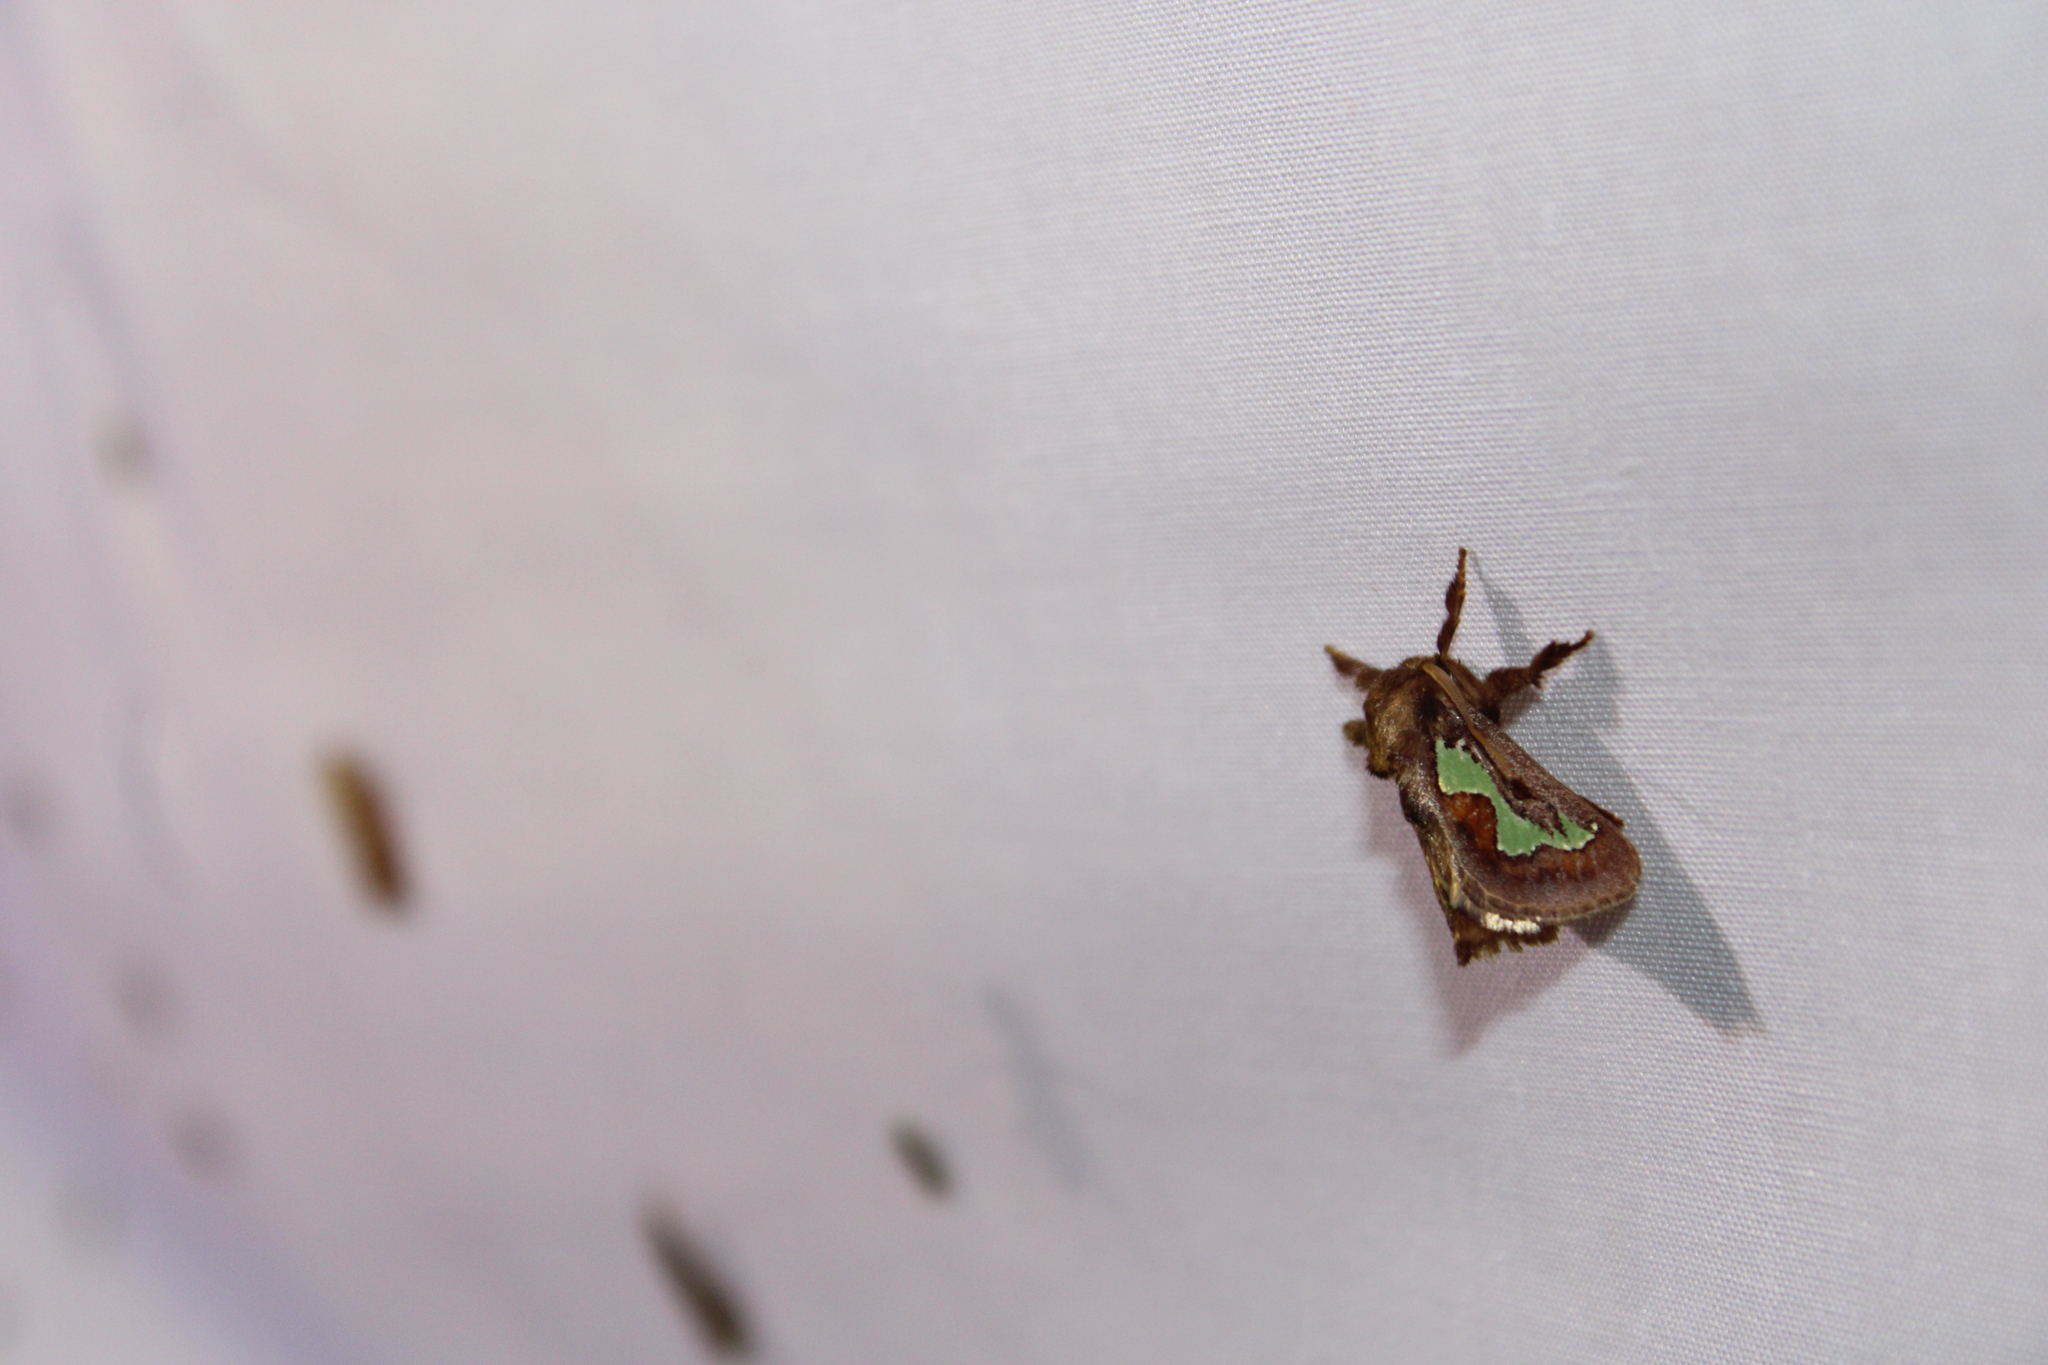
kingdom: Animalia
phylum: Arthropoda
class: Insecta
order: Lepidoptera
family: Limacodidae
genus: Euclea
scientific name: Euclea delphinii
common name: Spiny oak-slug moth
